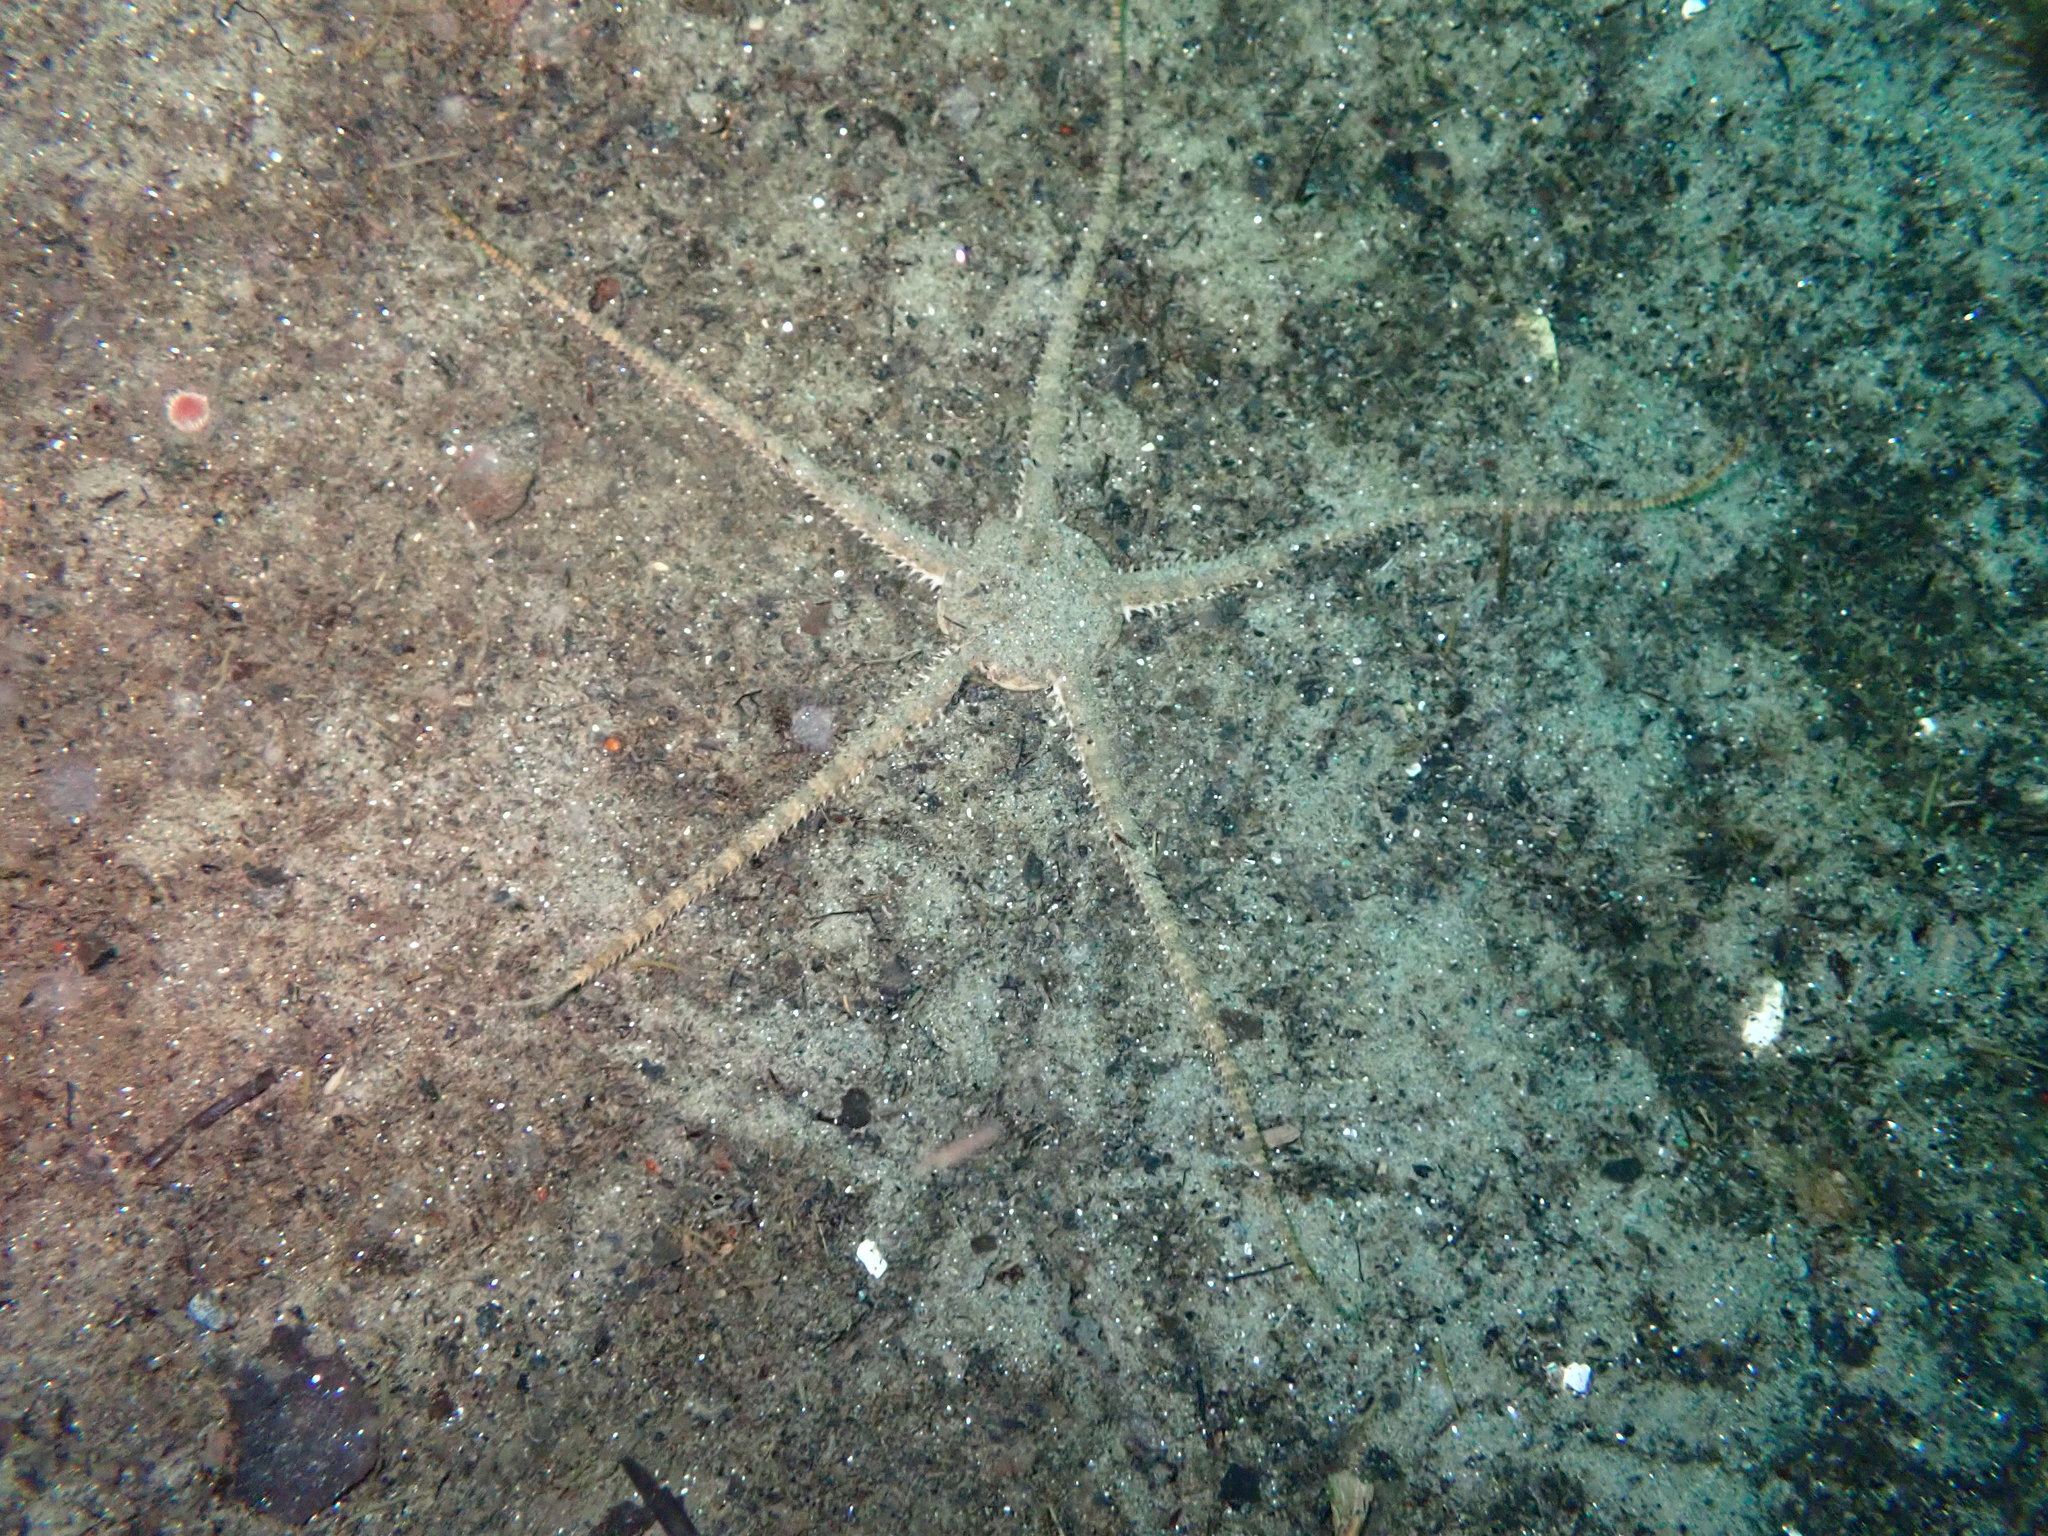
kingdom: Animalia
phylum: Echinodermata
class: Ophiuroidea
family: Ophiuridae
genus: Ophiura
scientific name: Ophiura ophiura
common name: Serpent star
